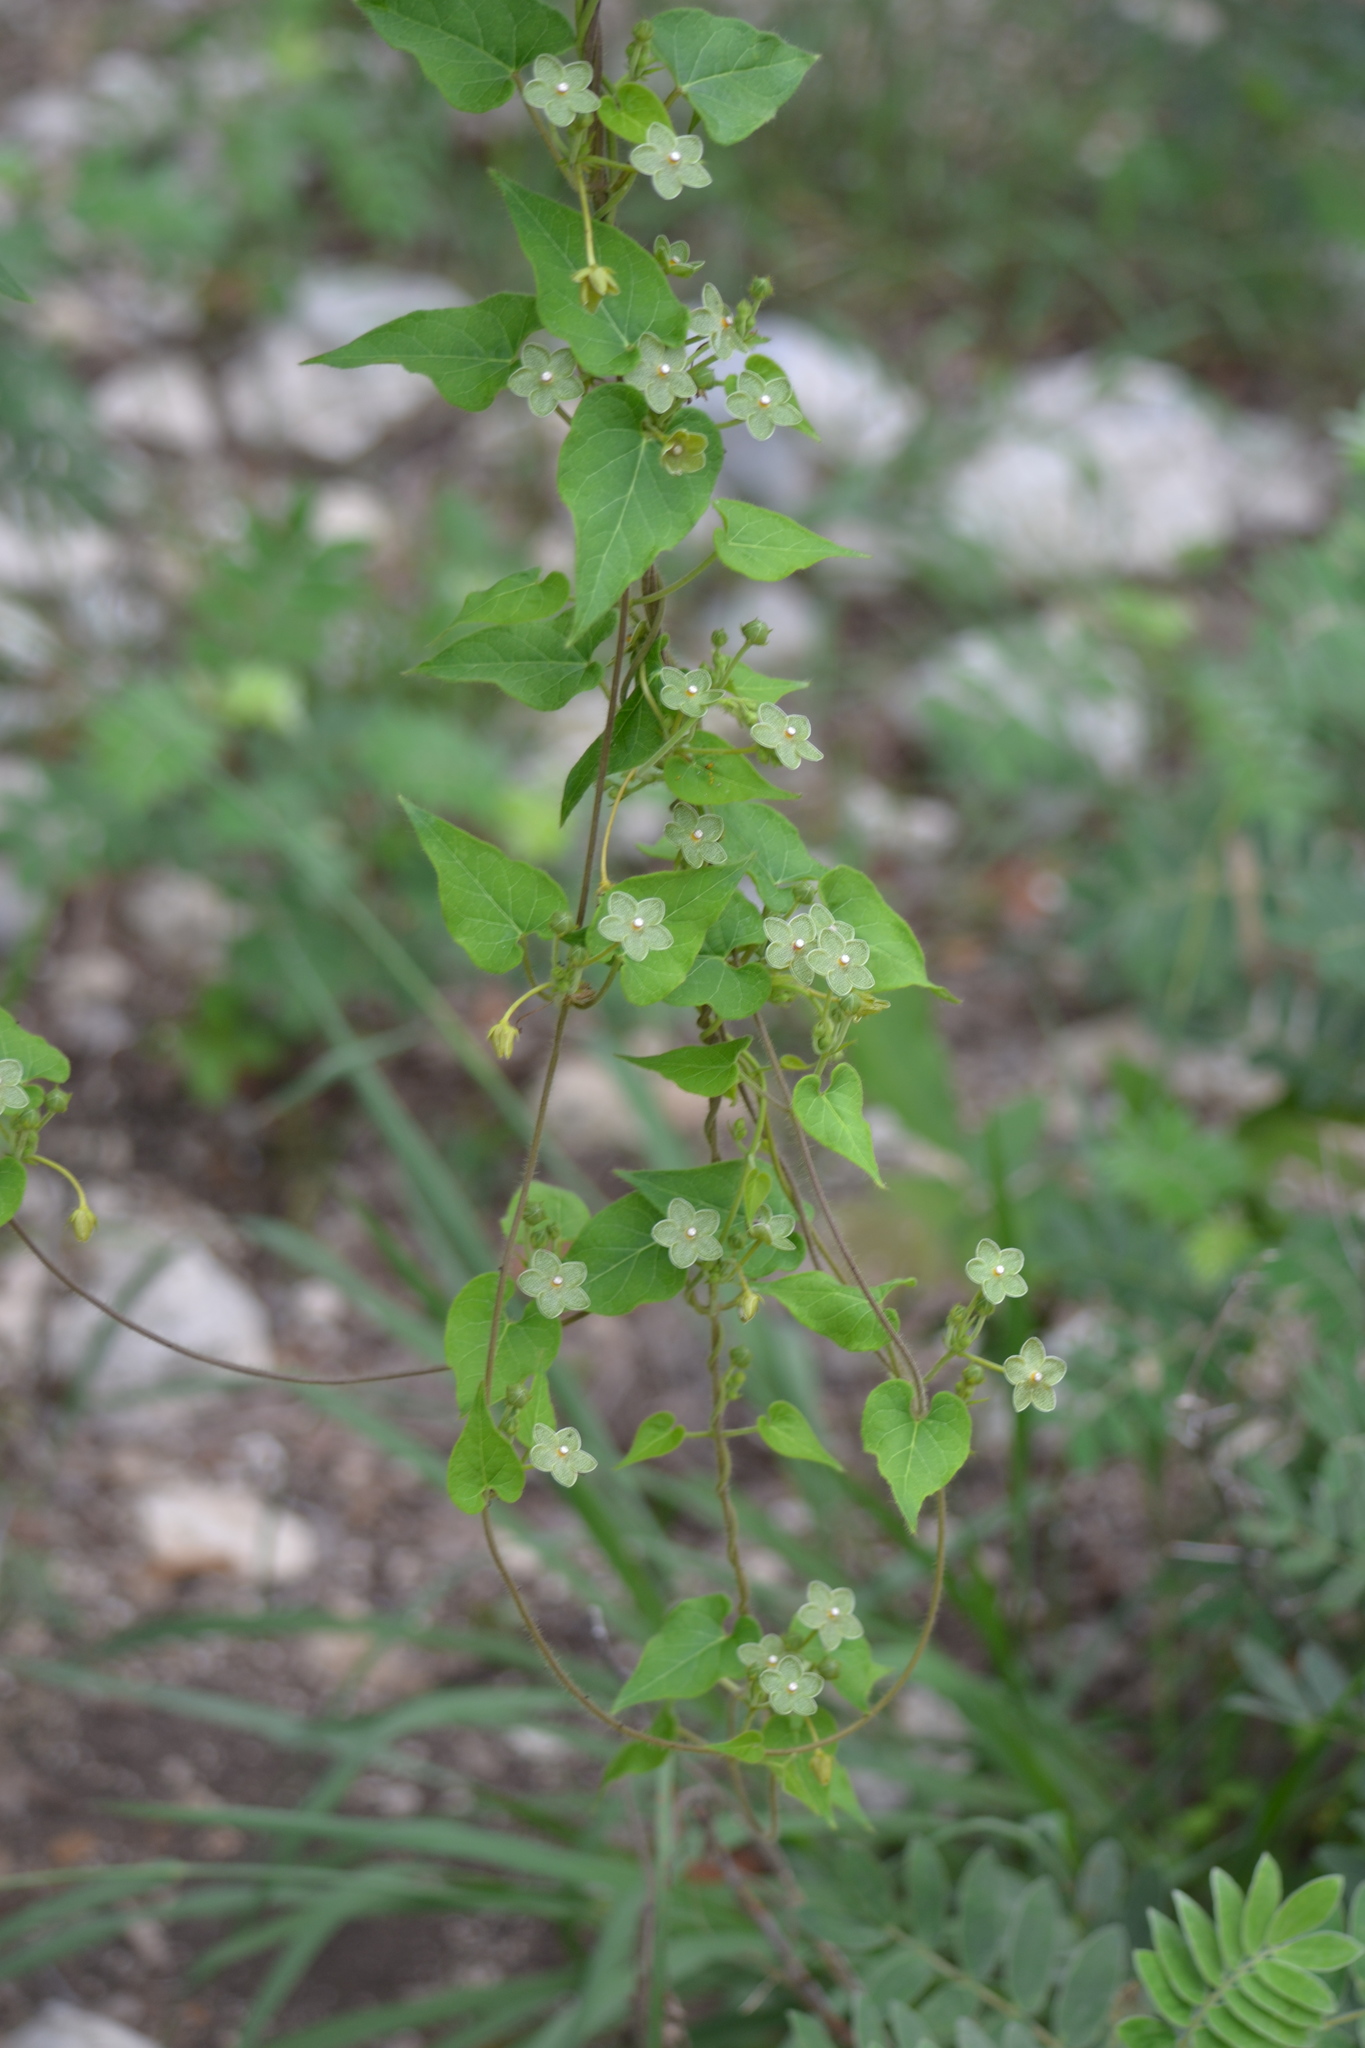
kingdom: Plantae
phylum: Tracheophyta
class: Magnoliopsida
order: Gentianales
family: Apocynaceae
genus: Dictyanthus
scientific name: Dictyanthus reticulatus
